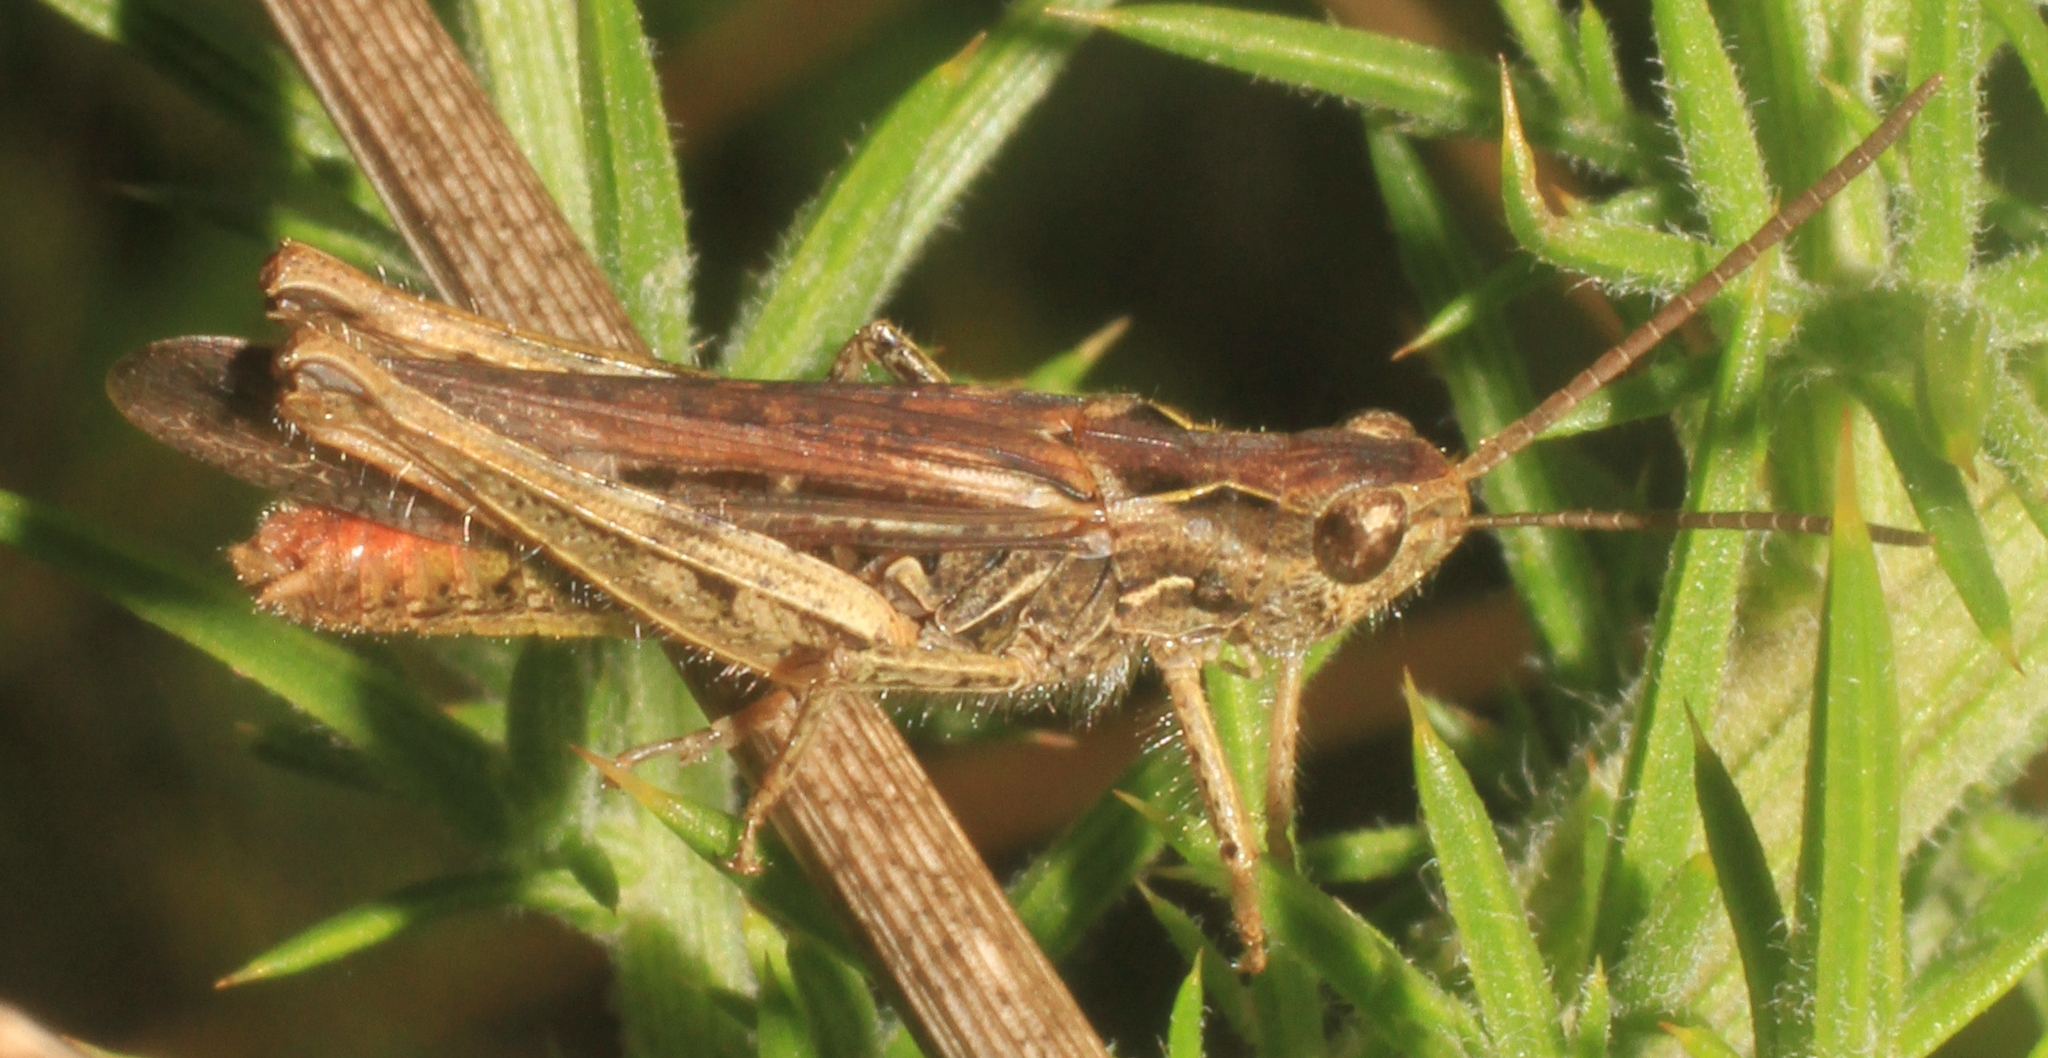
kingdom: Animalia
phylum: Arthropoda
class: Insecta
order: Orthoptera
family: Acrididae
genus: Chorthippus
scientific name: Chorthippus brunneus
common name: Field grasshopper
